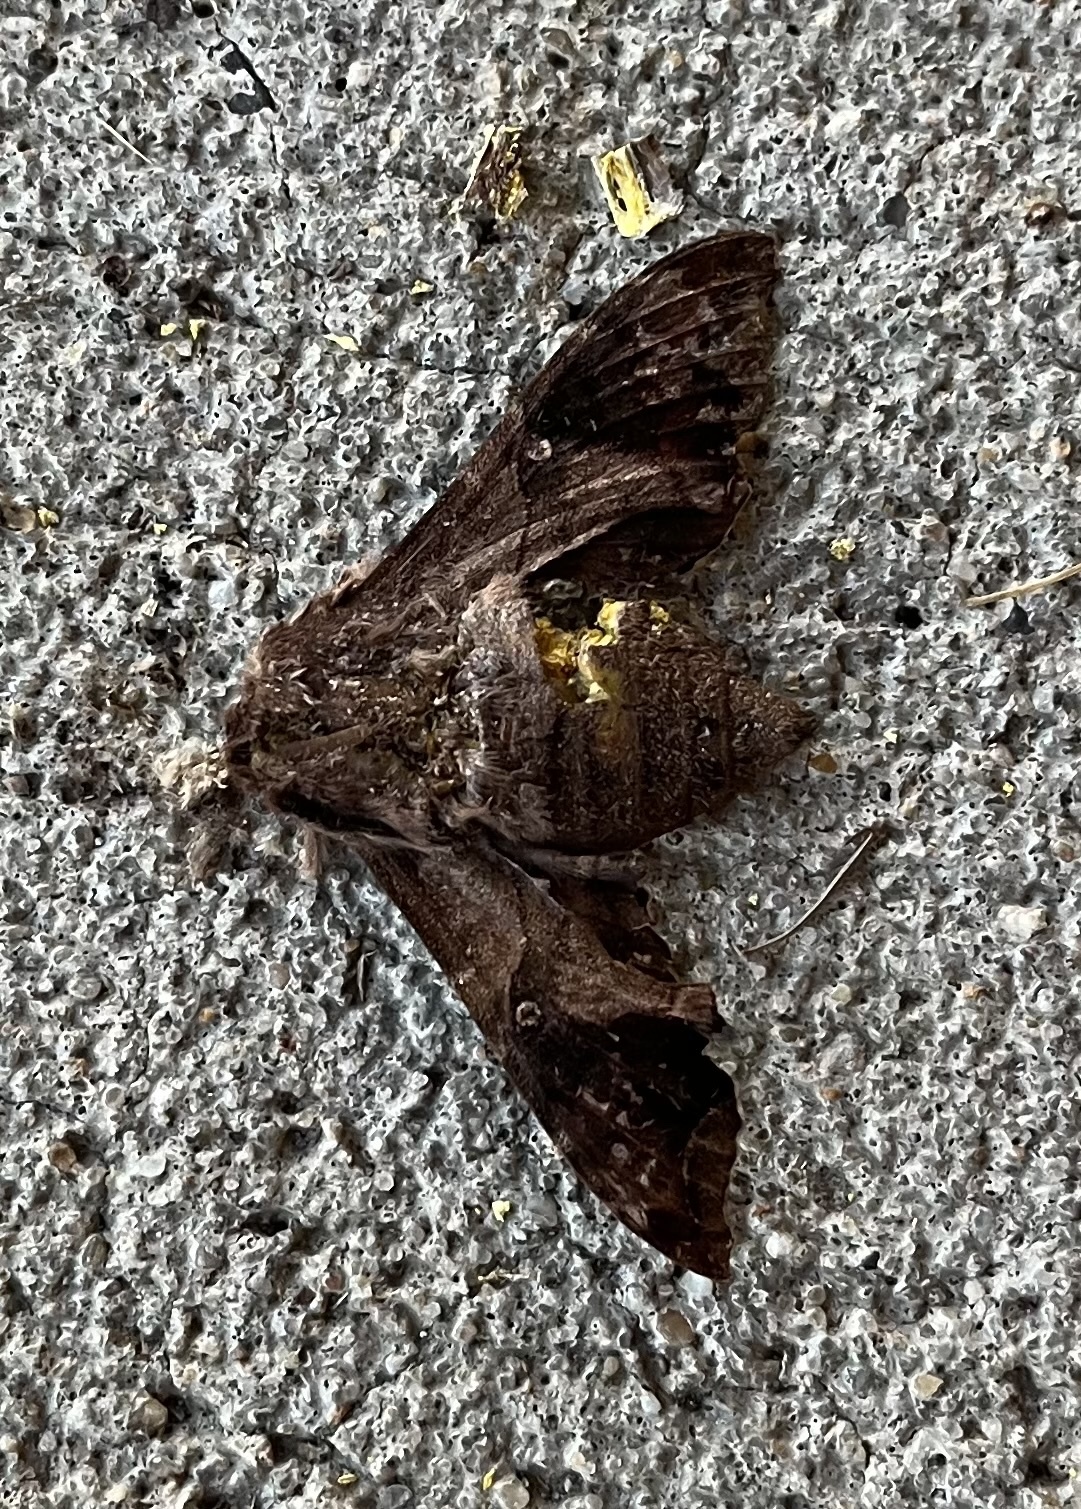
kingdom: Animalia
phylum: Arthropoda
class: Insecta
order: Lepidoptera
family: Sphingidae
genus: Enyo
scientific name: Enyo lugubris
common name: Mournful sphinx
